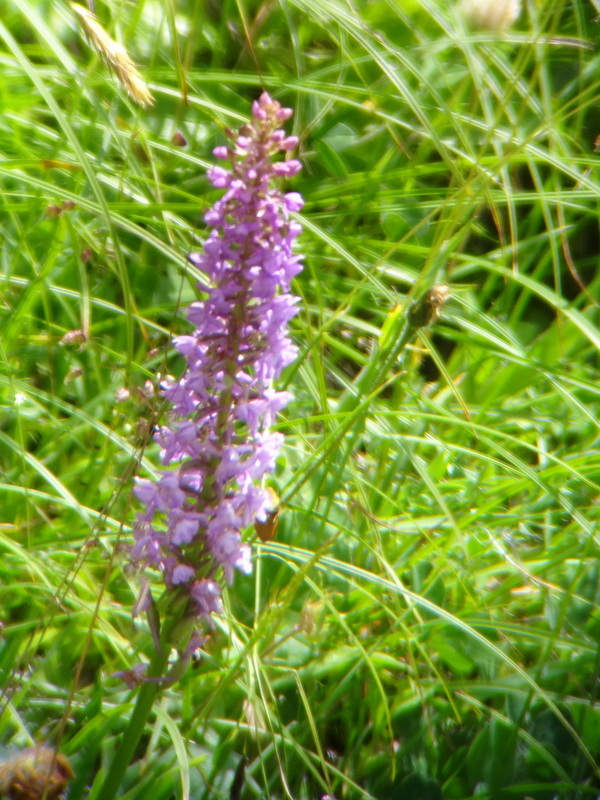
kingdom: Plantae
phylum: Tracheophyta
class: Liliopsida
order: Asparagales
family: Orchidaceae
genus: Gymnadenia
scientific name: Gymnadenia conopsea
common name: Fragrant orchid
